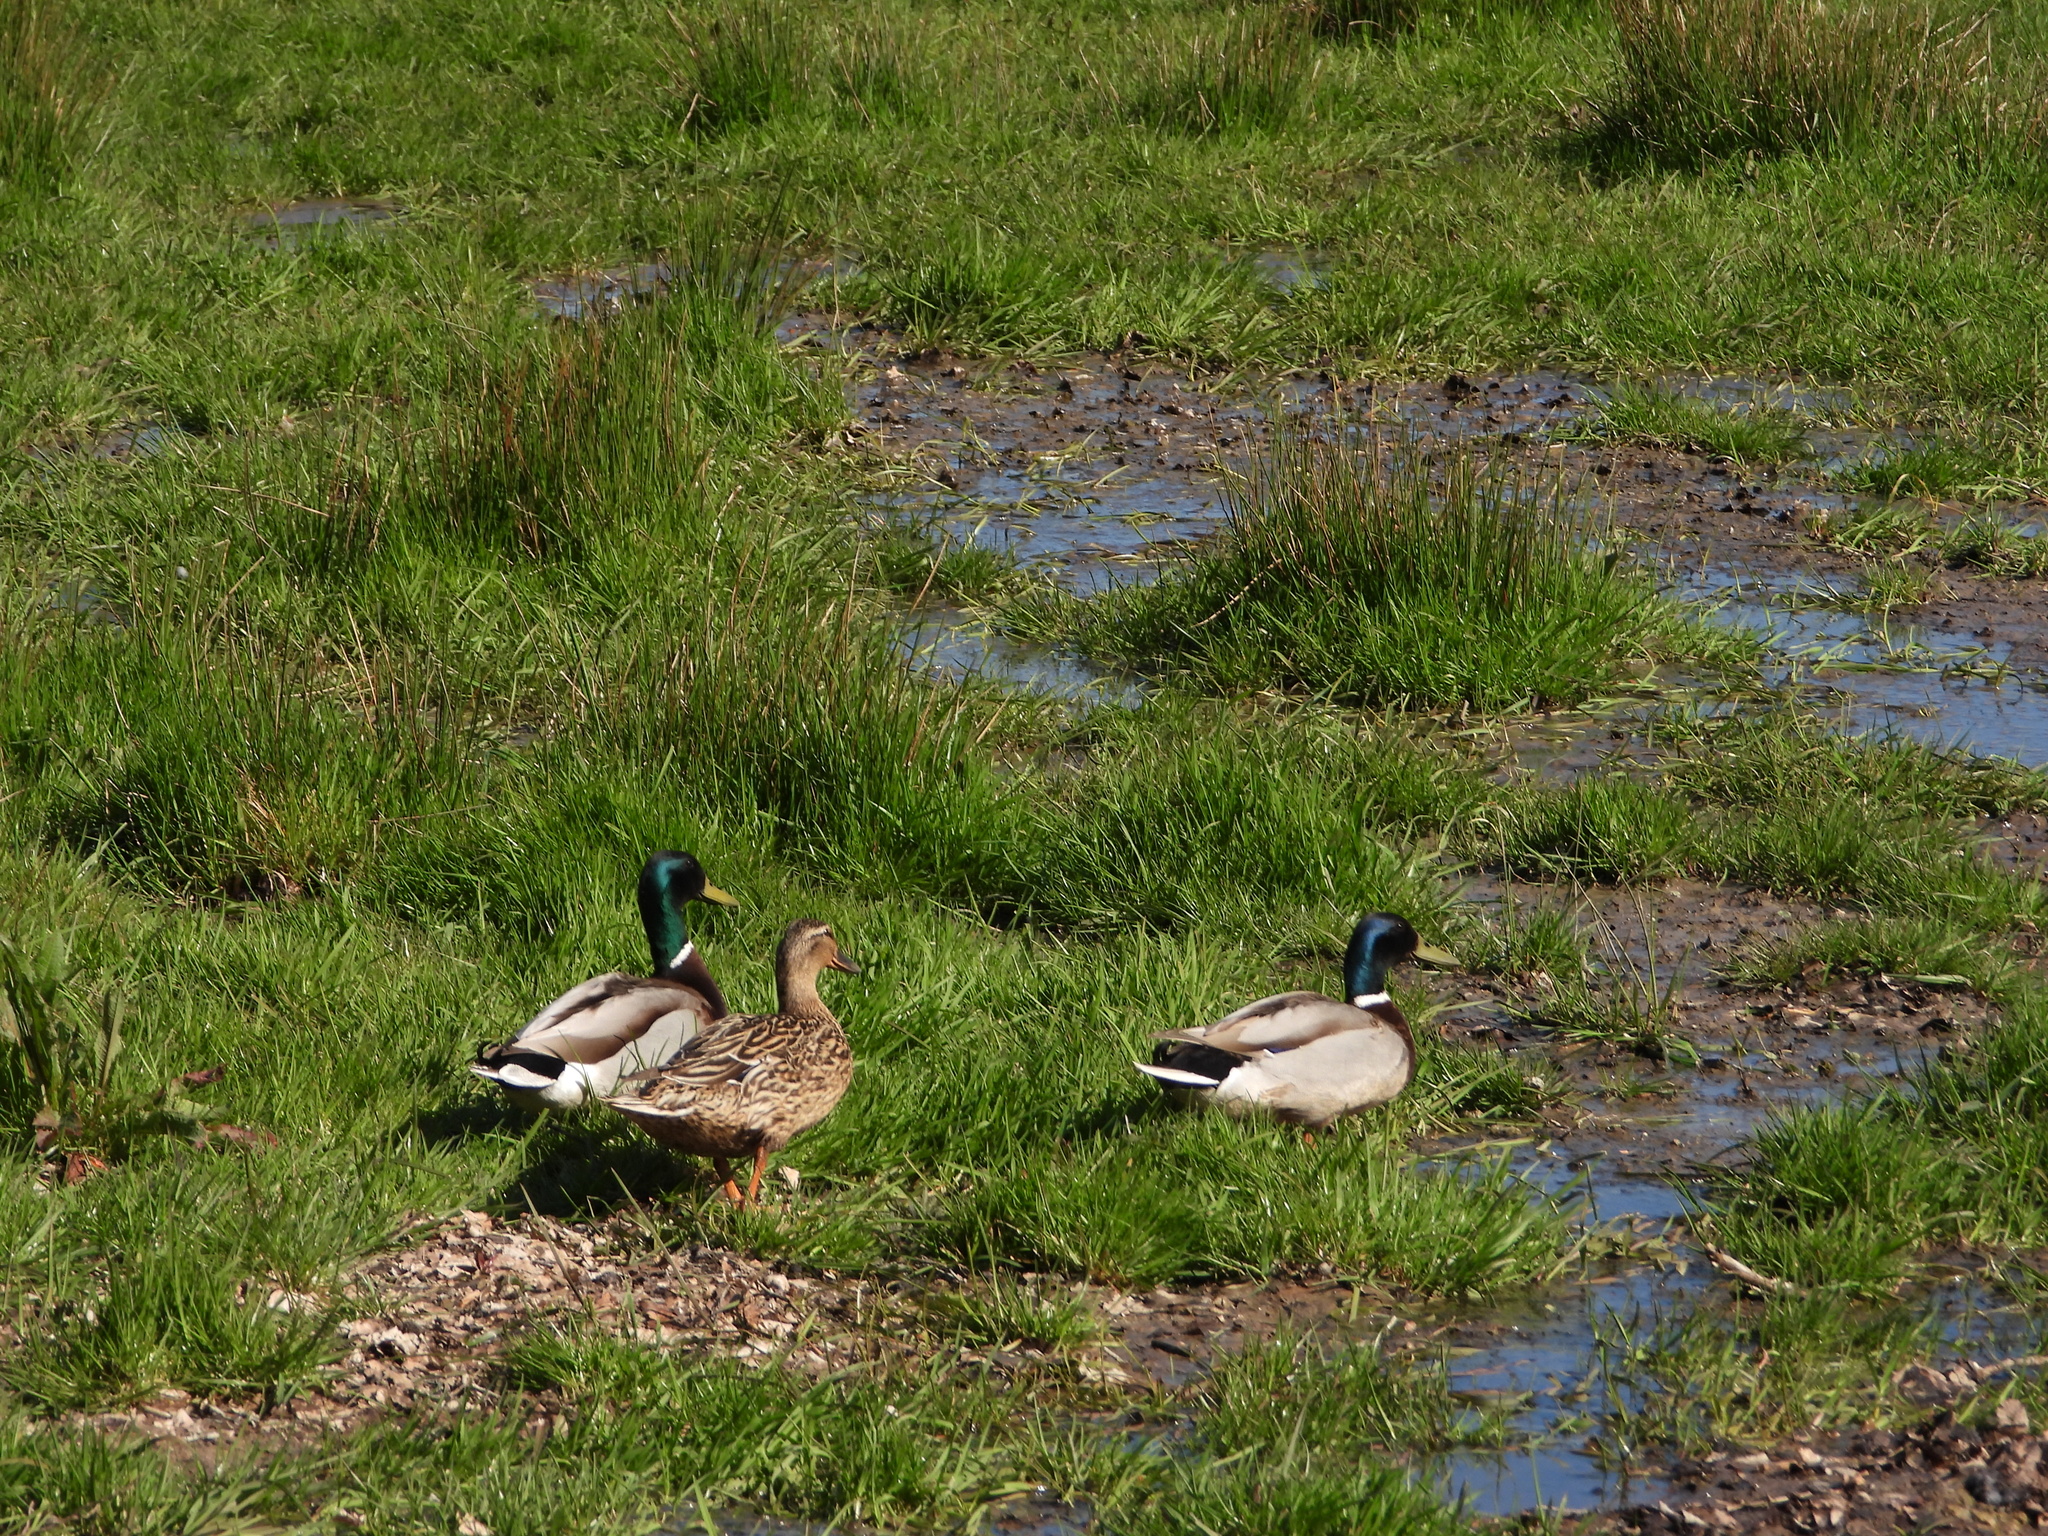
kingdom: Animalia
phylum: Chordata
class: Aves
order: Anseriformes
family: Anatidae
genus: Anas
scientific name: Anas platyrhynchos
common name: Mallard
